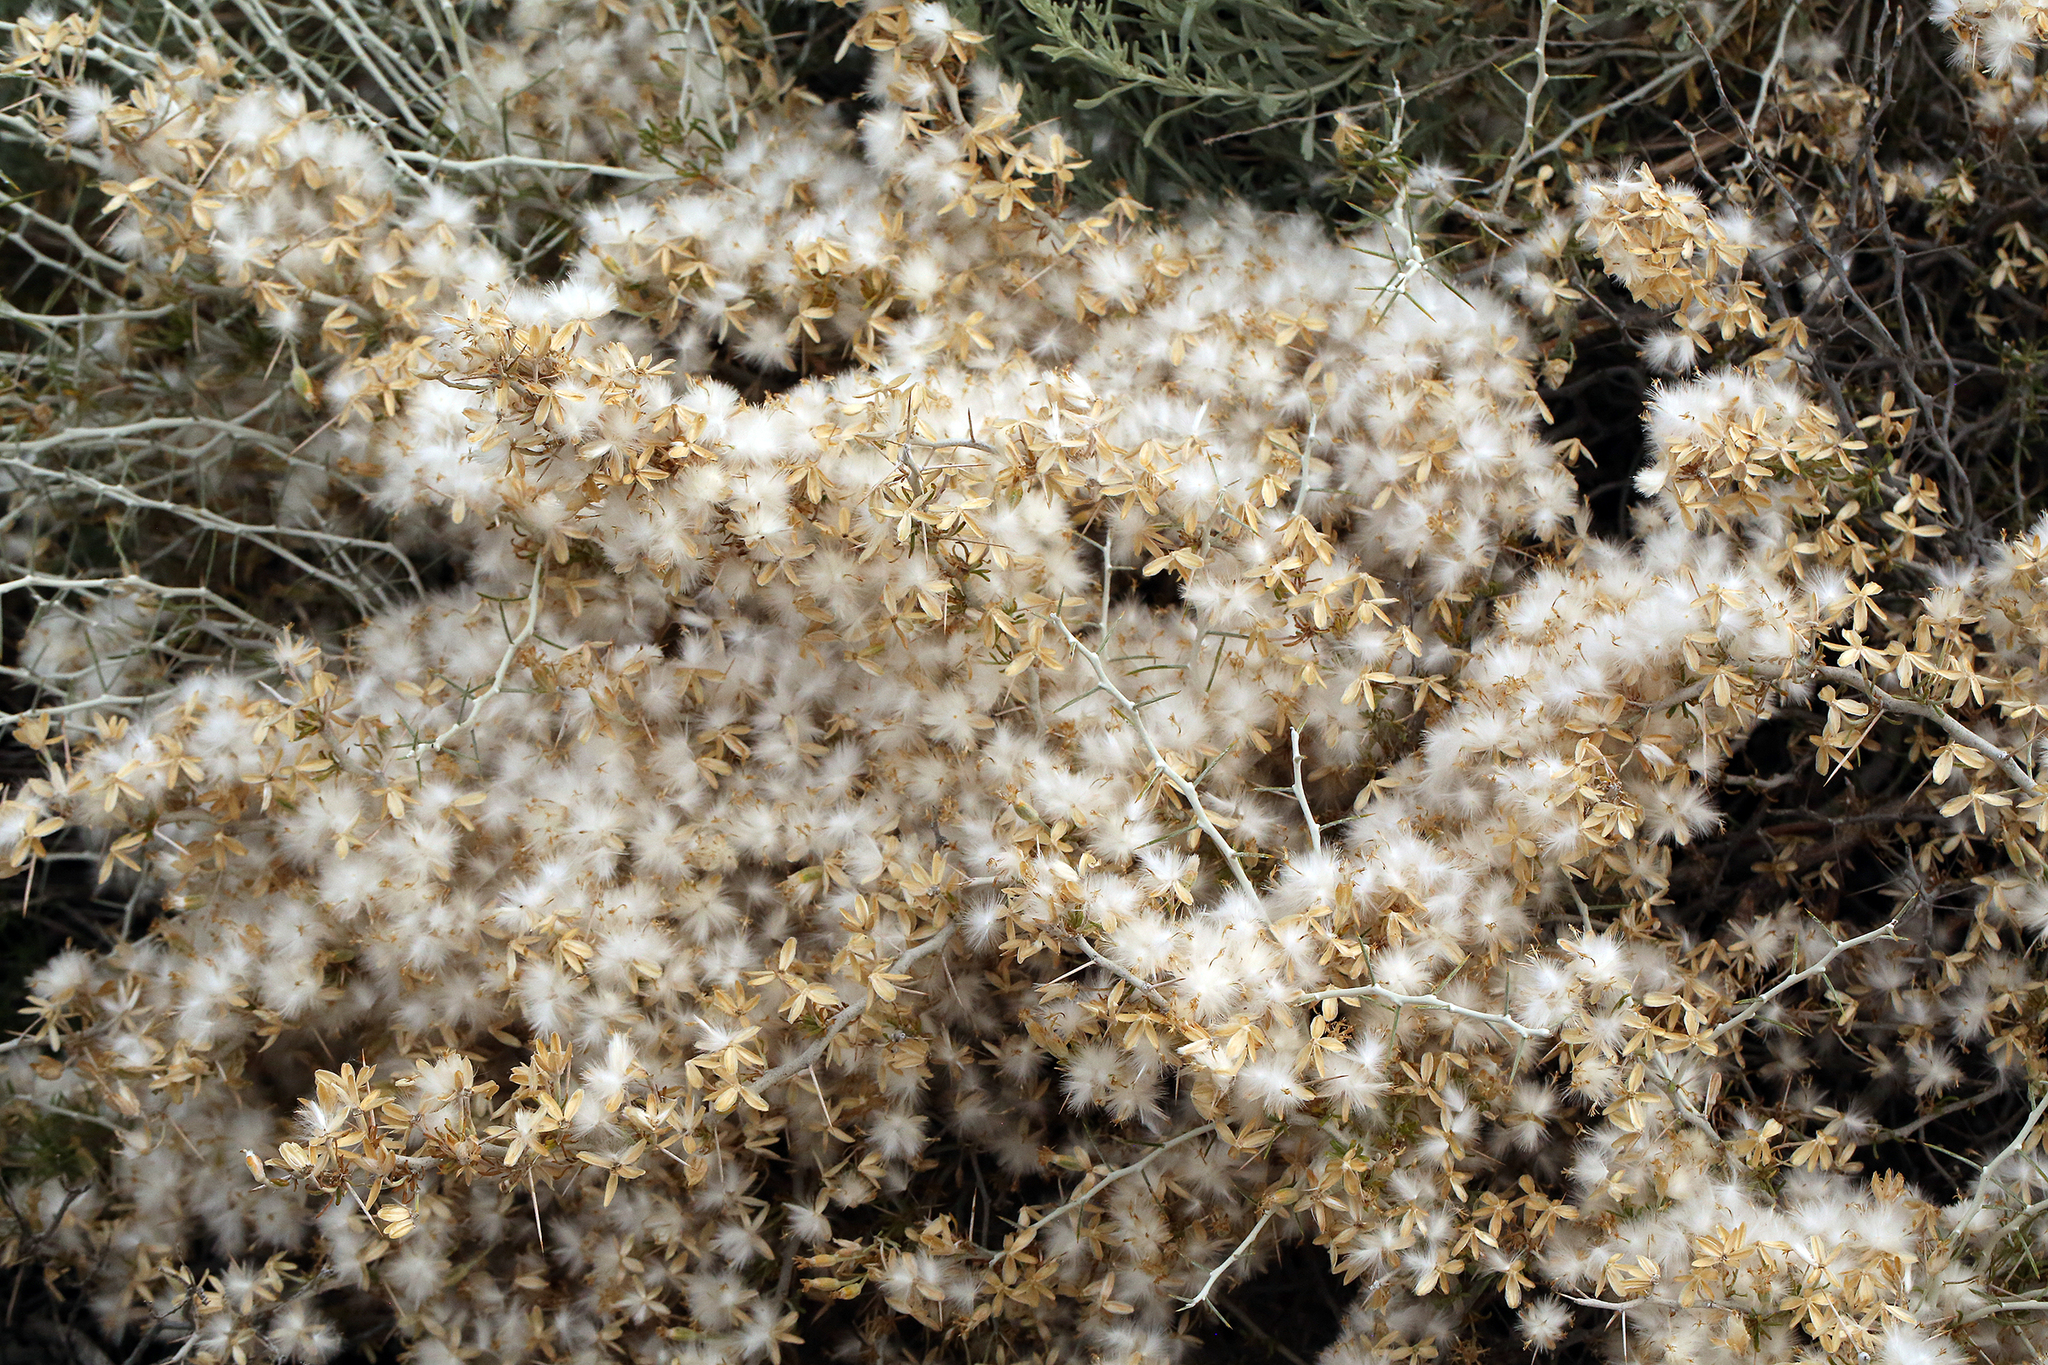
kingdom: Plantae
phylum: Tracheophyta
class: Magnoliopsida
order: Asterales
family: Asteraceae
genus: Tetradymia
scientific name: Tetradymia axillaris
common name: Long-spine horsebrush
